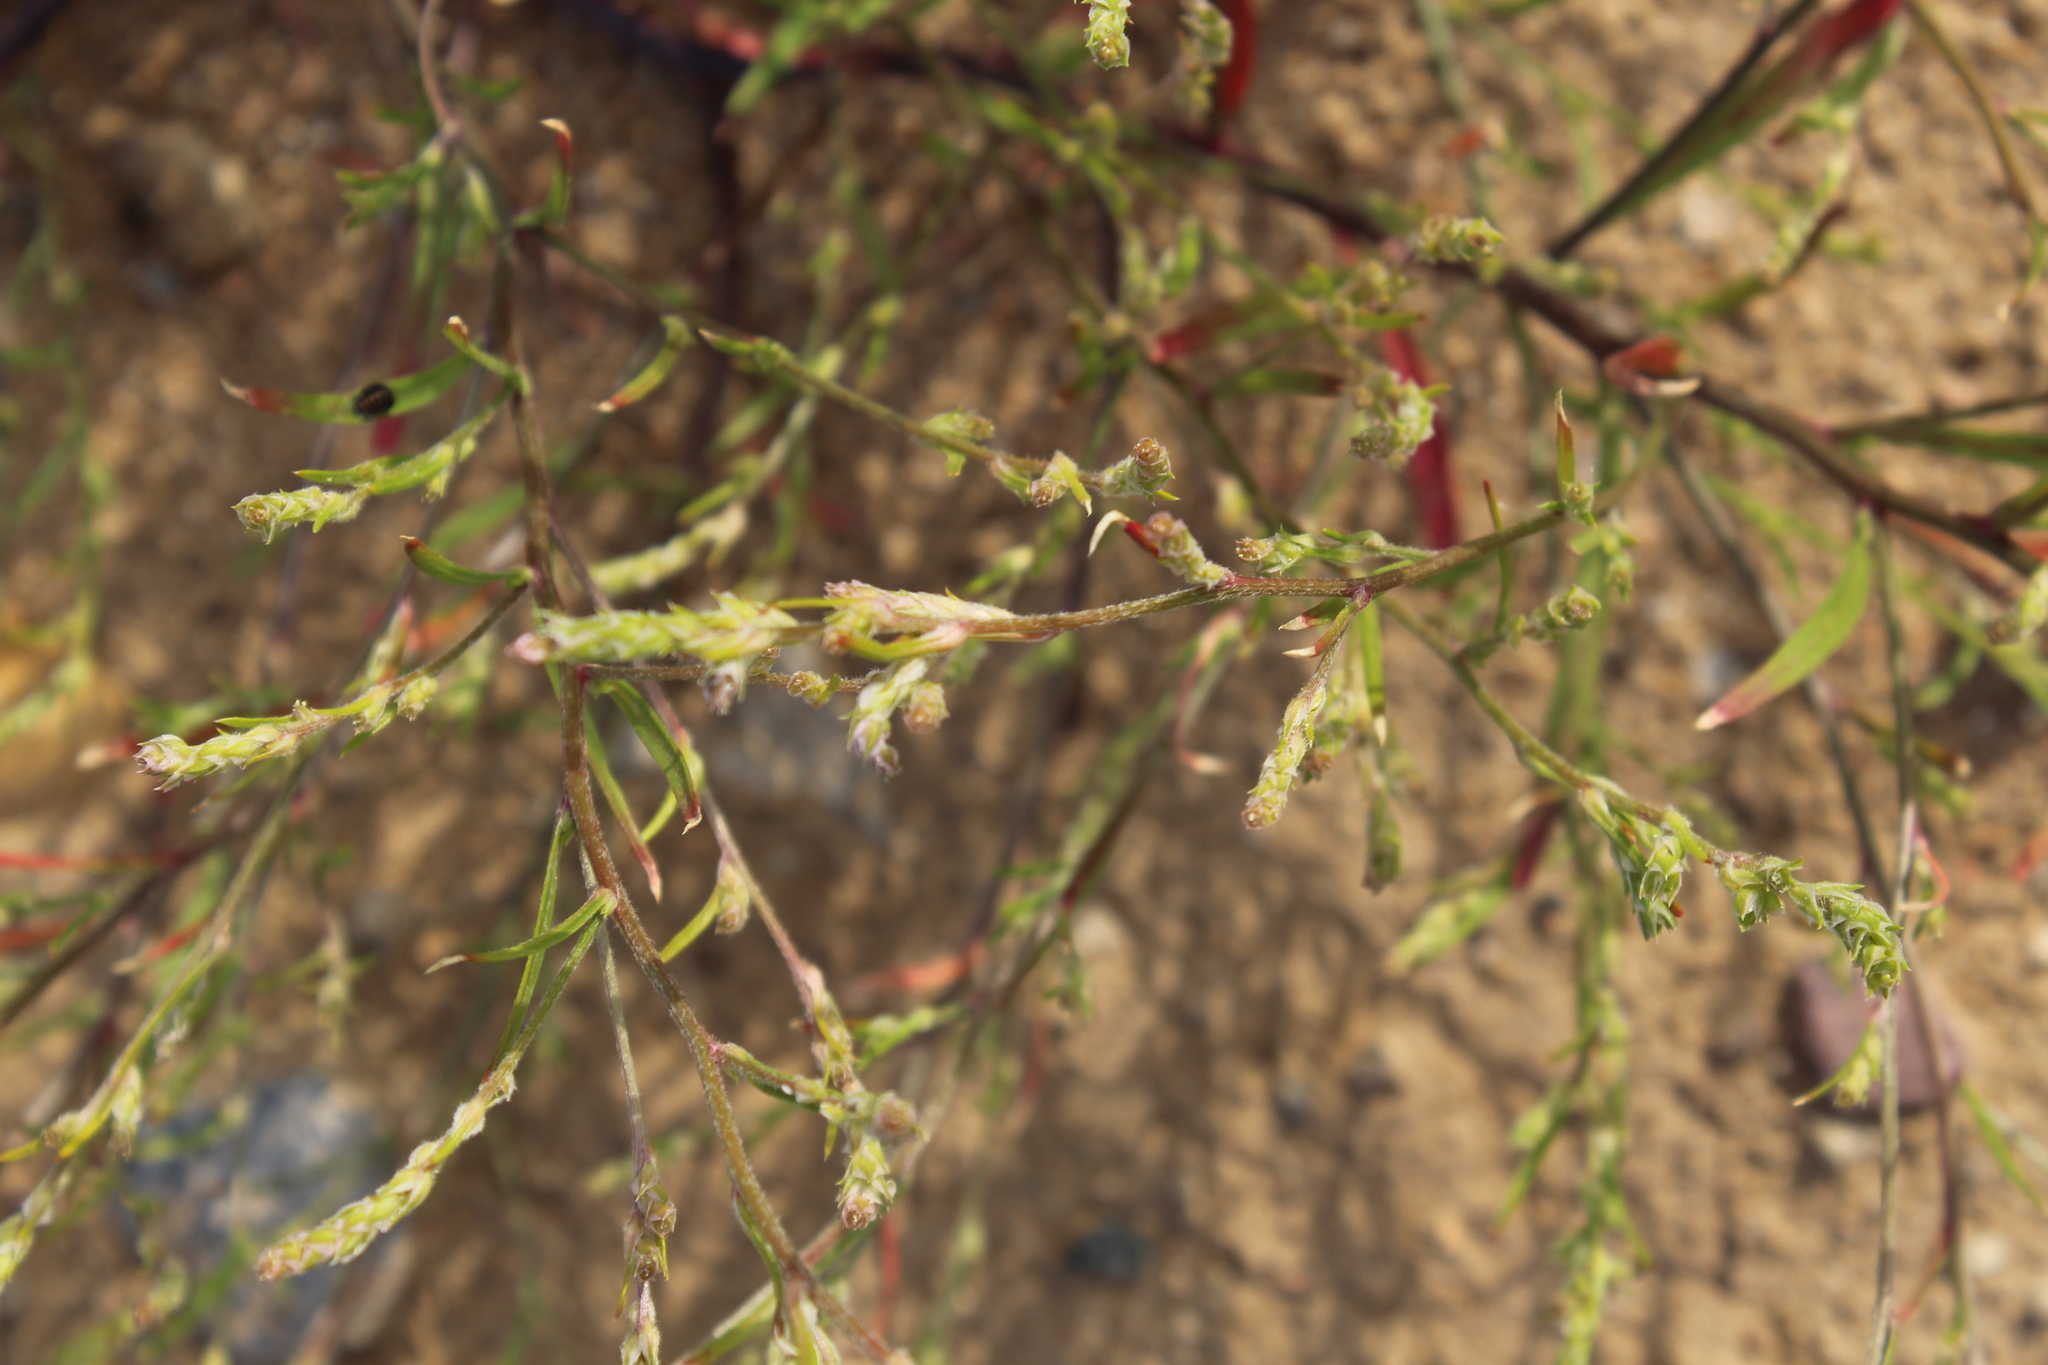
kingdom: Plantae
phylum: Tracheophyta
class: Magnoliopsida
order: Caryophyllales
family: Amaranthaceae
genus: Corispermum
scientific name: Corispermum hyssopifolium
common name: Bugseed
